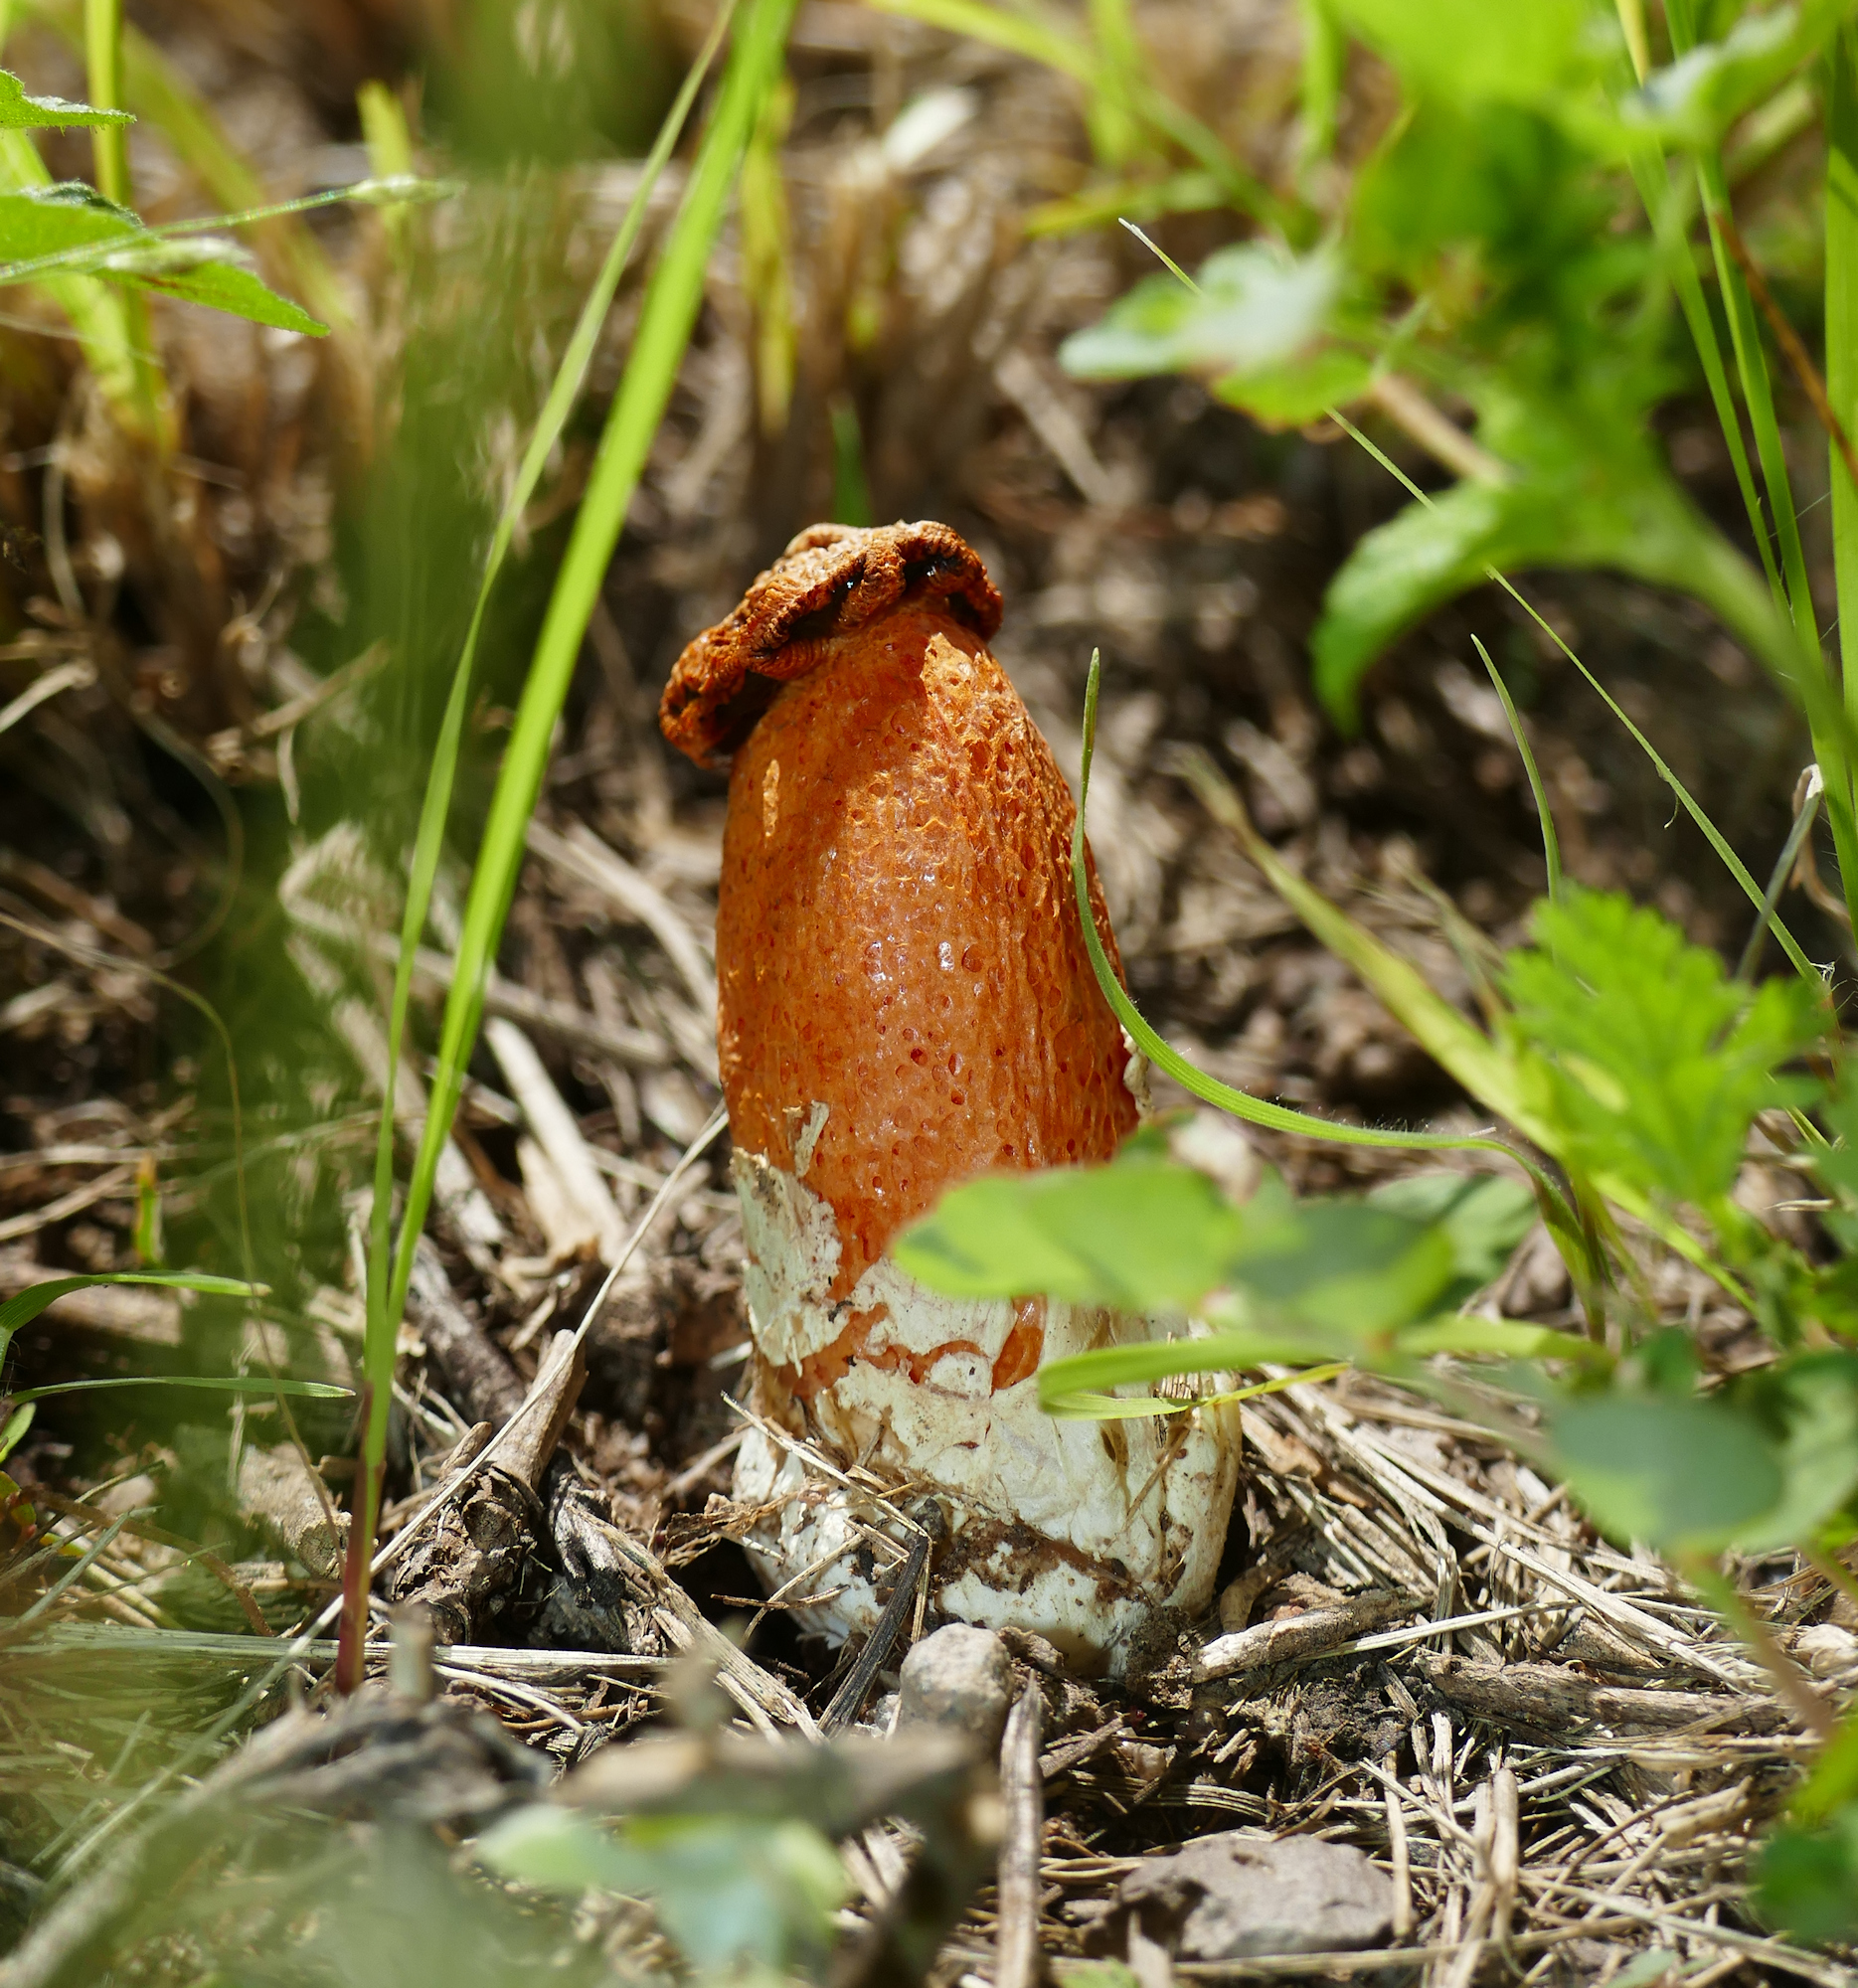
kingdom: Fungi
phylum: Basidiomycota
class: Agaricomycetes
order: Phallales
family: Phallaceae
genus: Lysurus
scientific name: Lysurus periphragmoides
